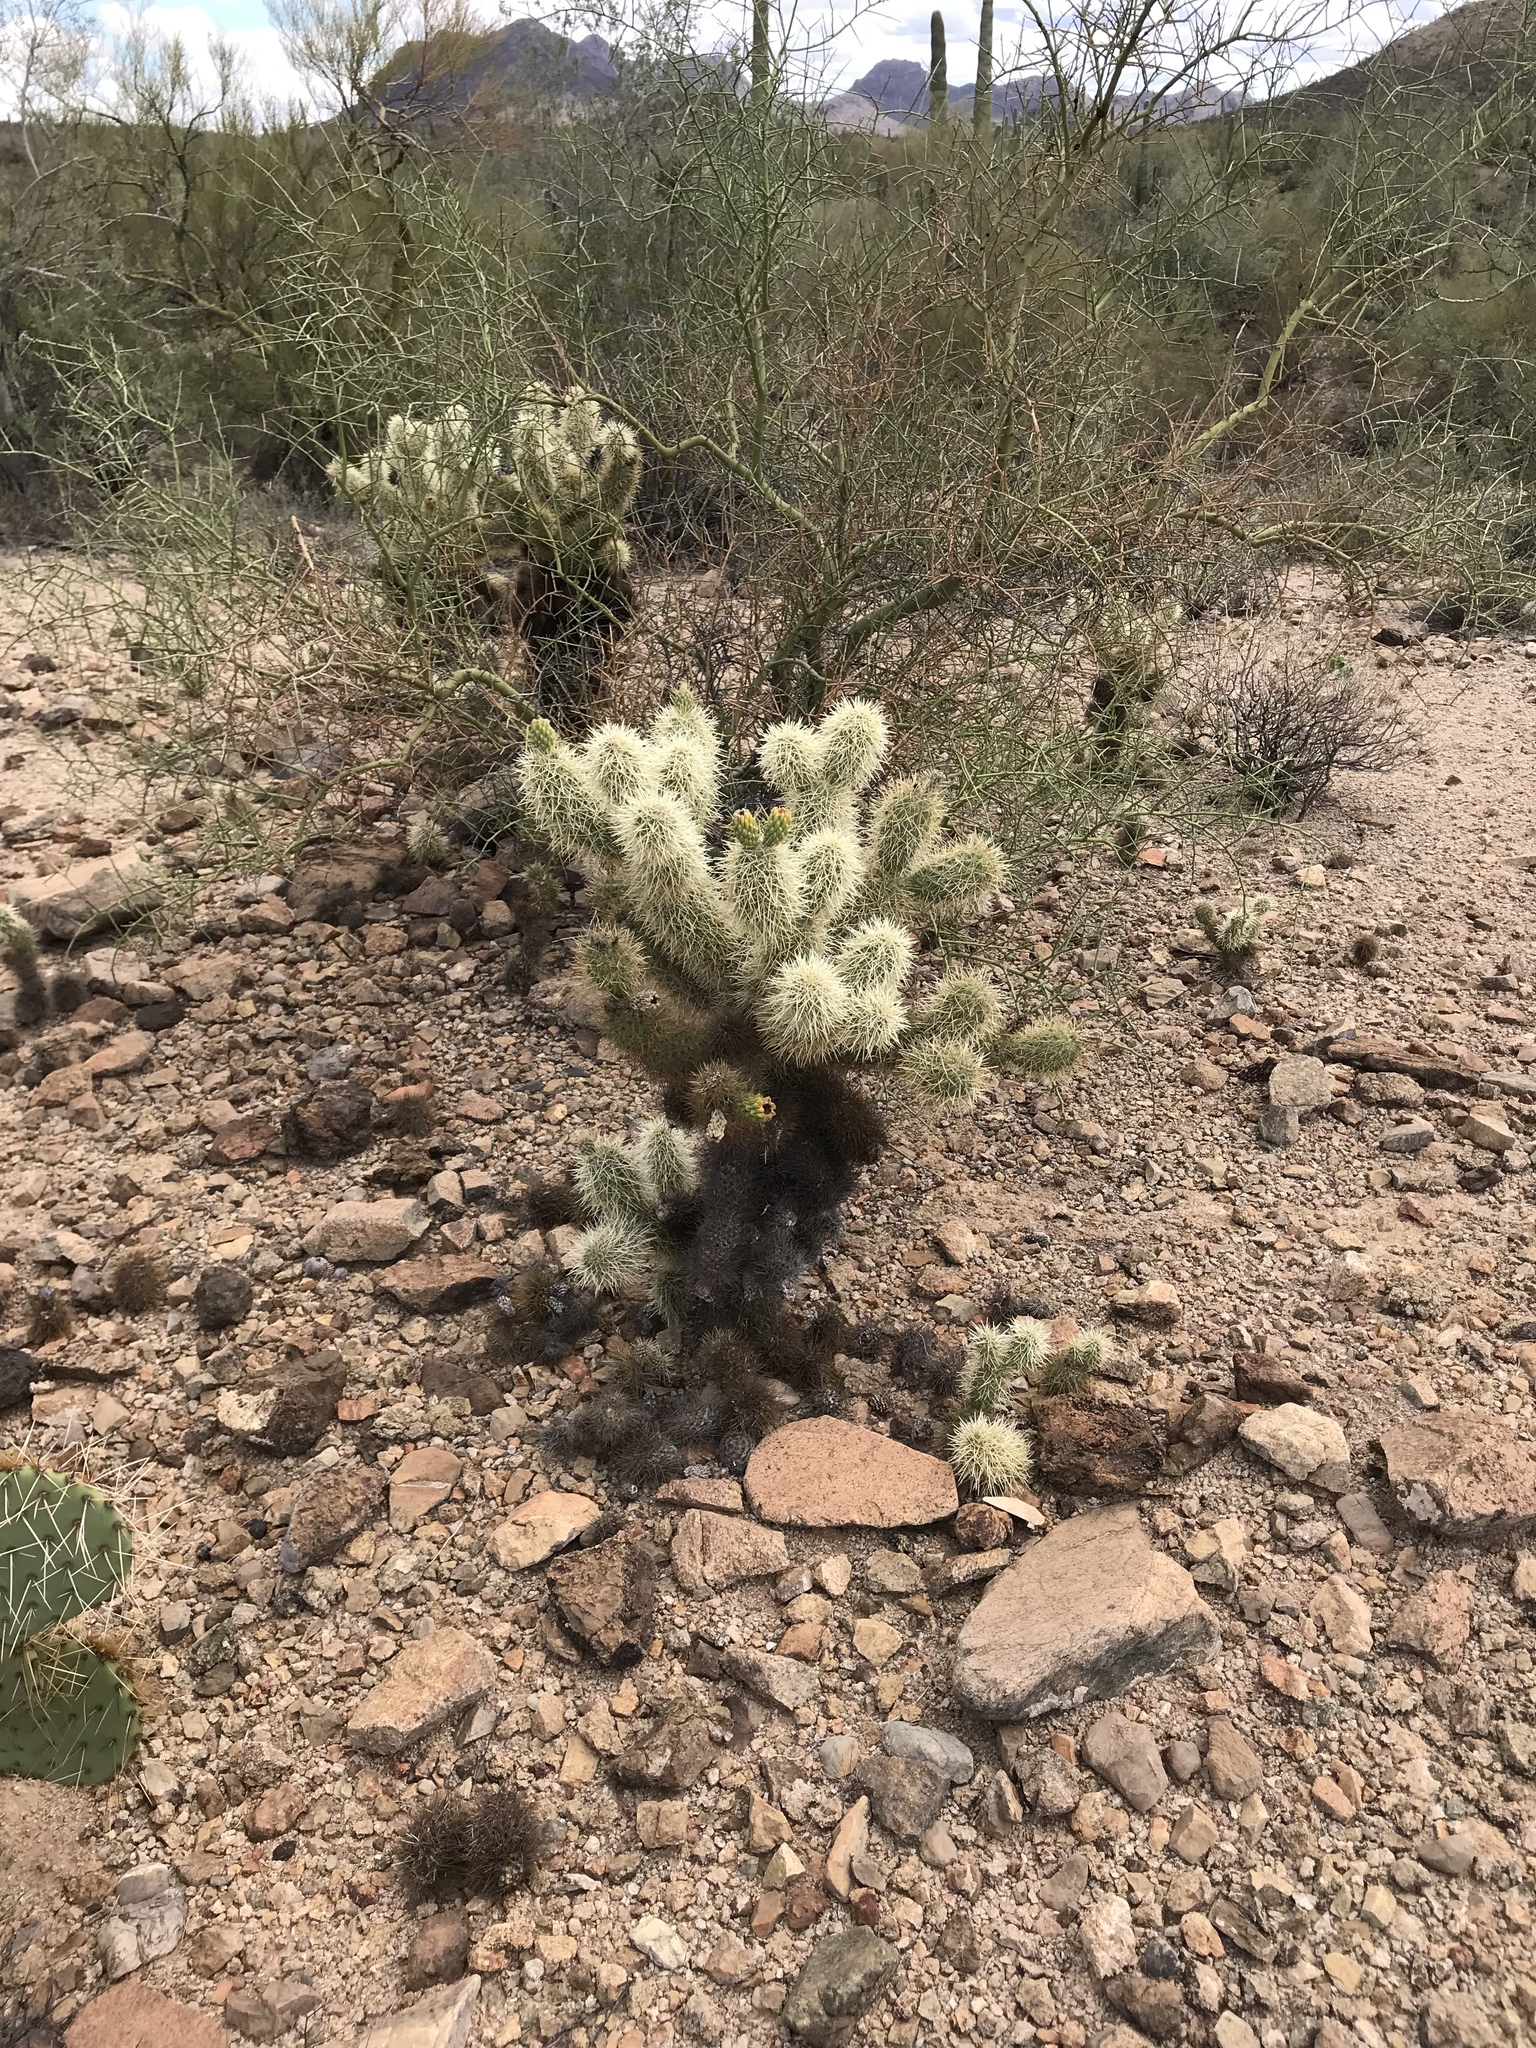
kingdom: Plantae
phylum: Tracheophyta
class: Magnoliopsida
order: Caryophyllales
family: Cactaceae
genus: Cylindropuntia
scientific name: Cylindropuntia fosbergii
